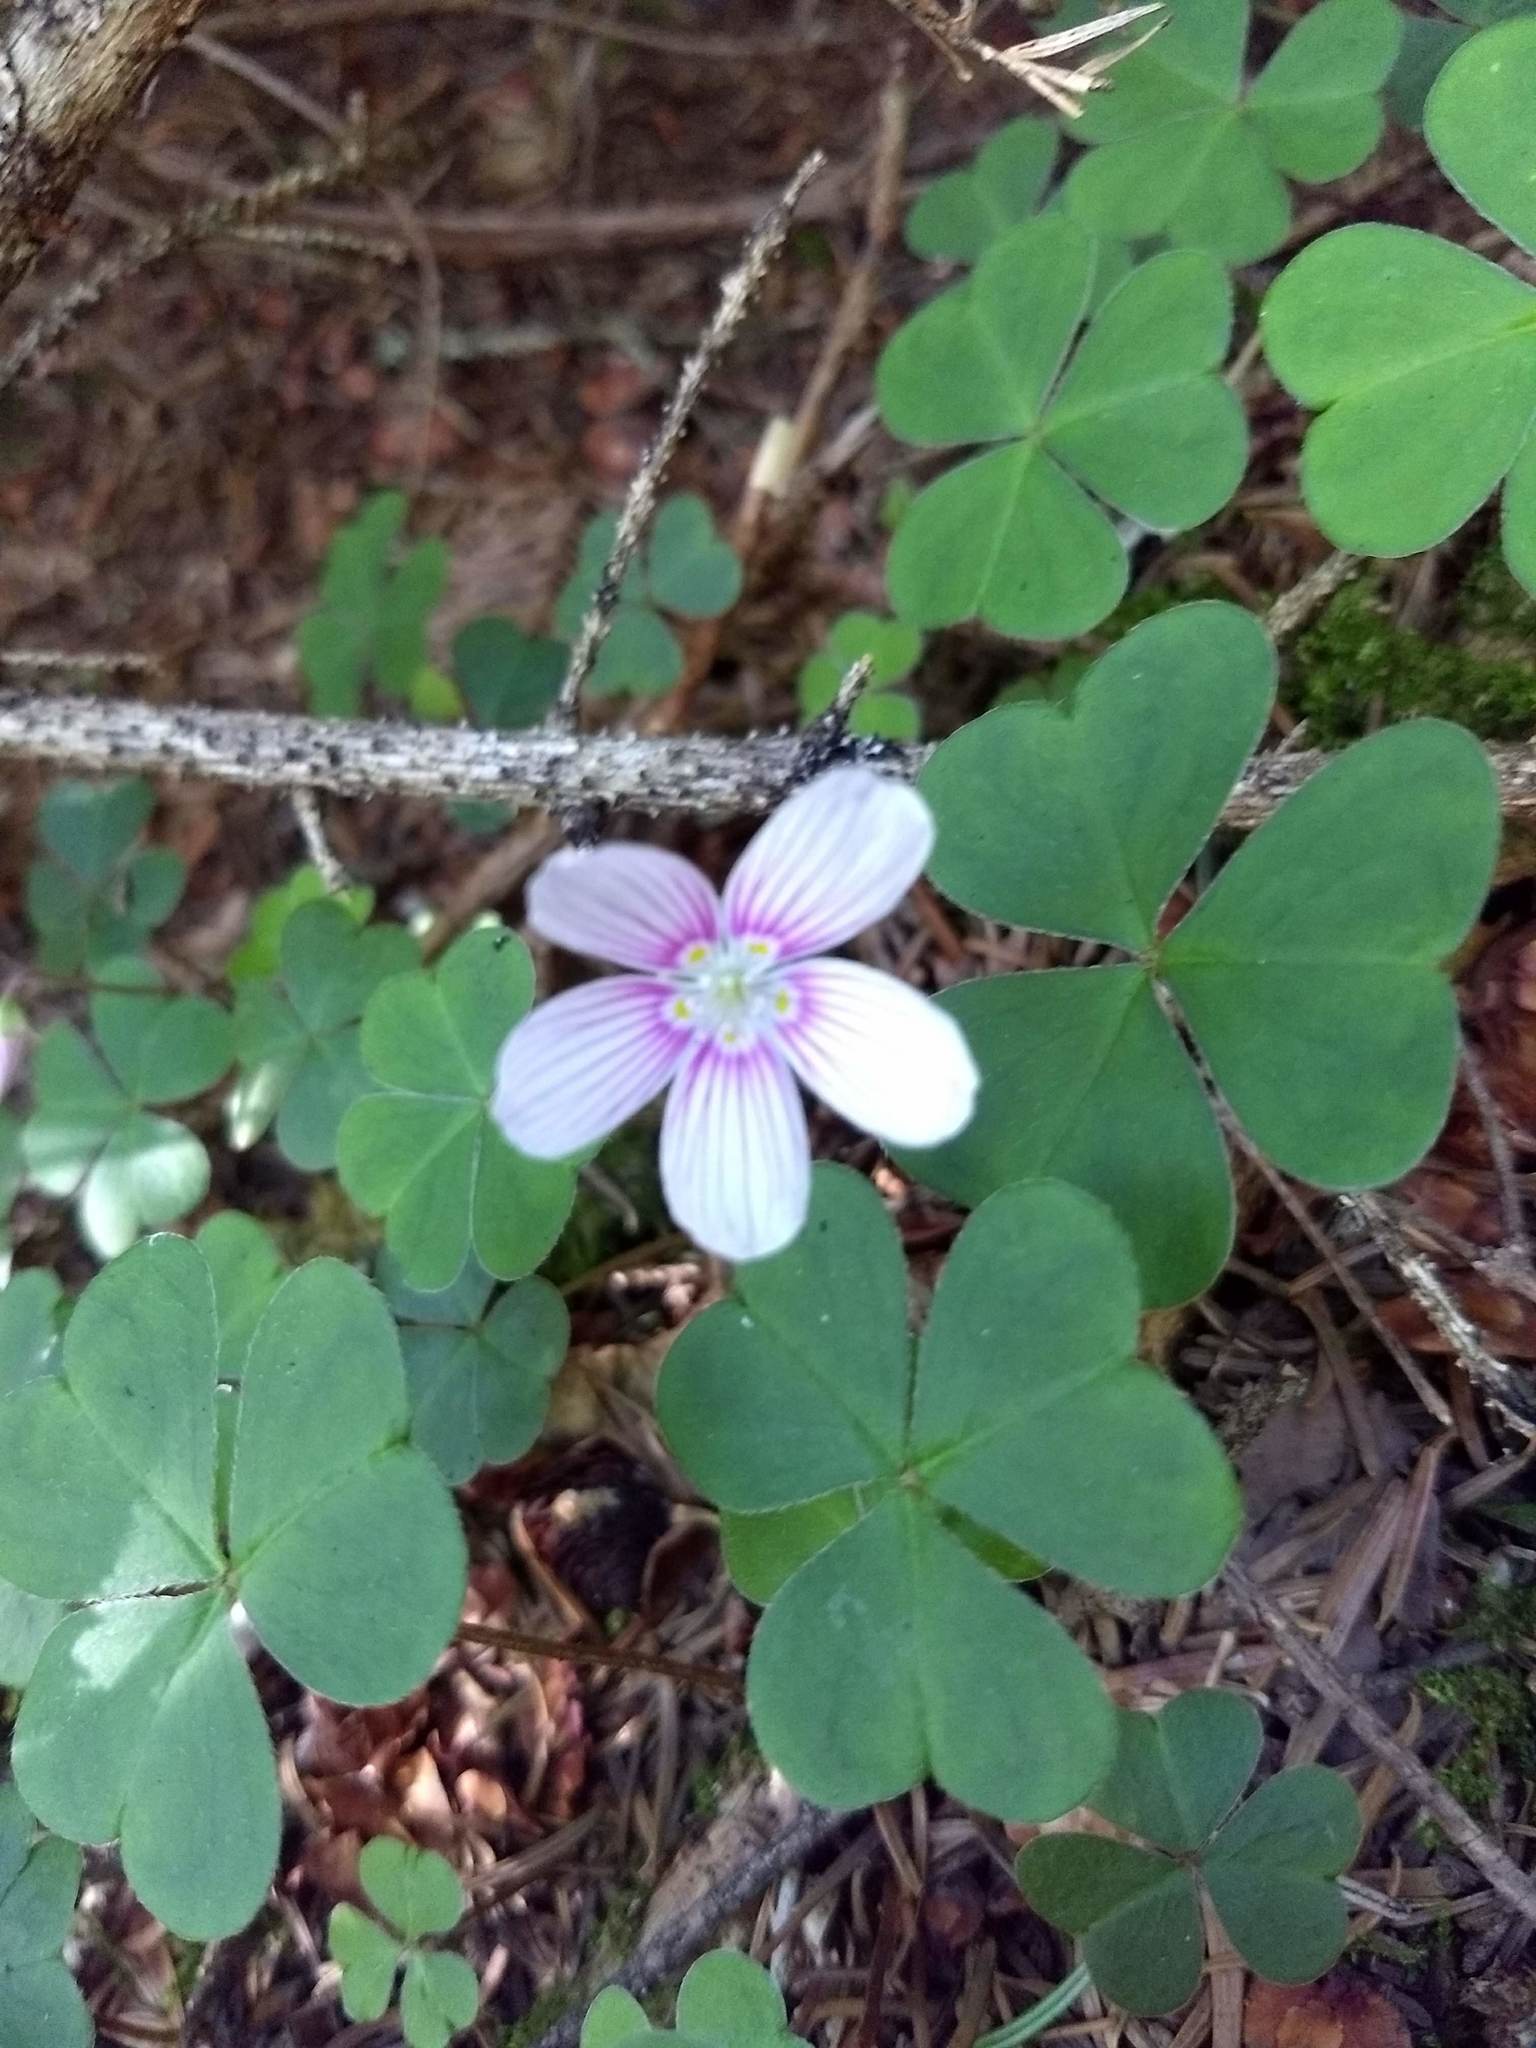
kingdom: Plantae
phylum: Tracheophyta
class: Magnoliopsida
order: Oxalidales
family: Oxalidaceae
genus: Oxalis
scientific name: Oxalis montana
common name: American wood-sorrel
